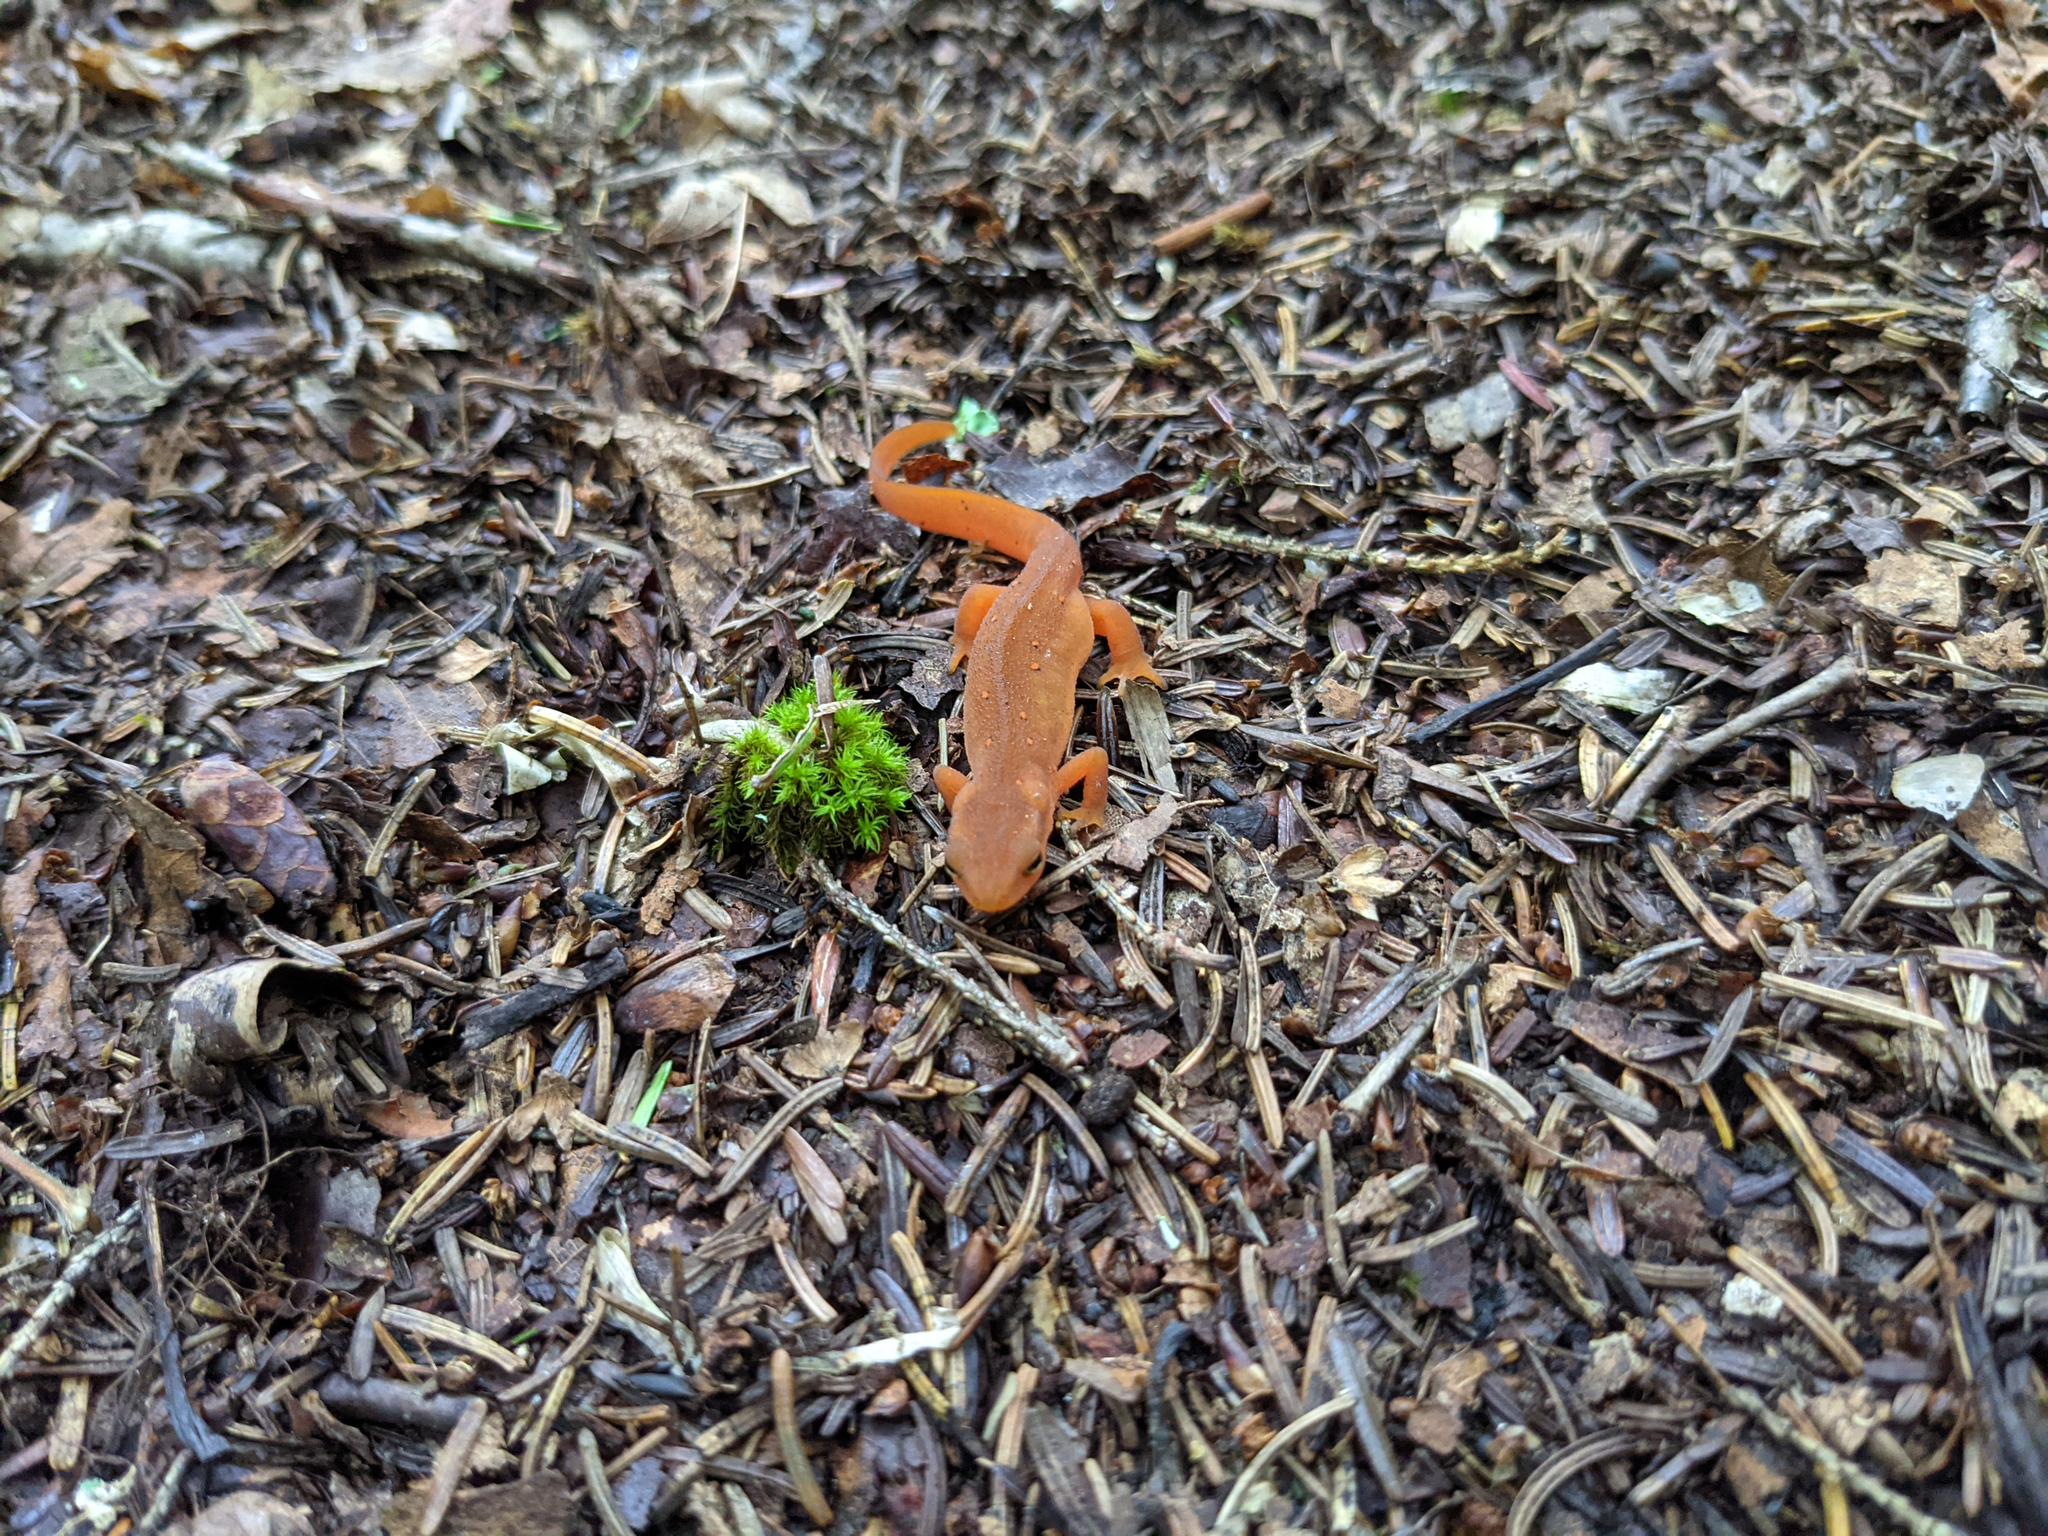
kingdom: Animalia
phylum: Chordata
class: Amphibia
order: Caudata
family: Salamandridae
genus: Notophthalmus
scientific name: Notophthalmus viridescens
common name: Eastern newt
